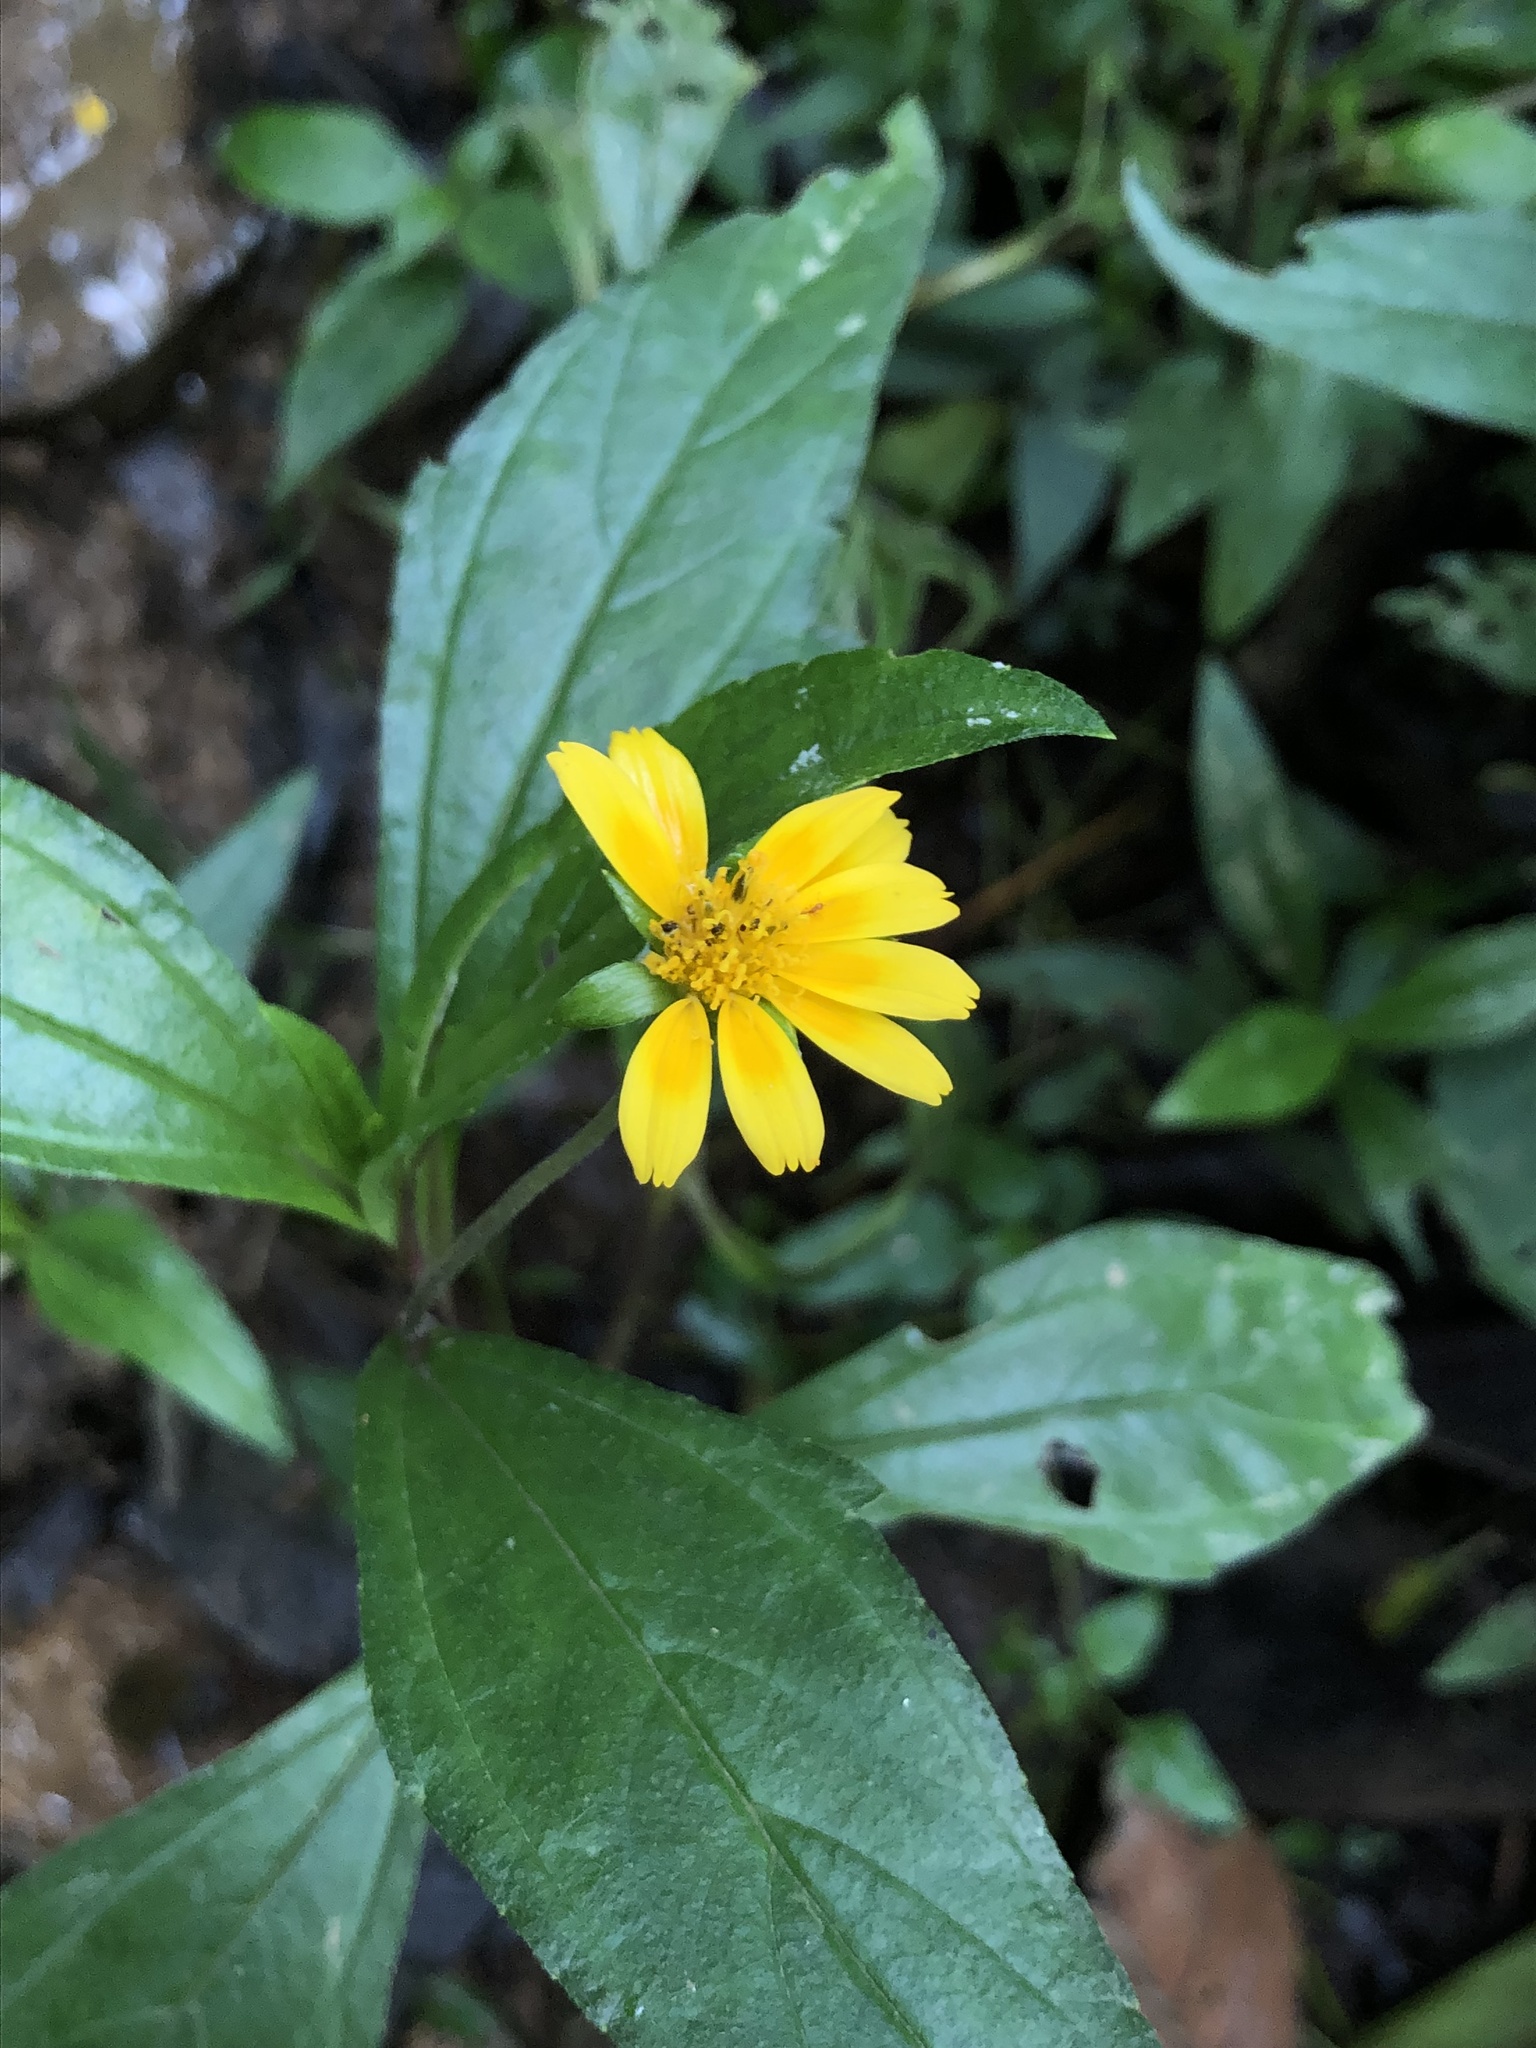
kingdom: Plantae
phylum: Tracheophyta
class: Magnoliopsida
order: Asterales
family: Asteraceae
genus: Sphagneticola
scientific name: Sphagneticola trilobata
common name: Bay biscayne creeping-oxeye
